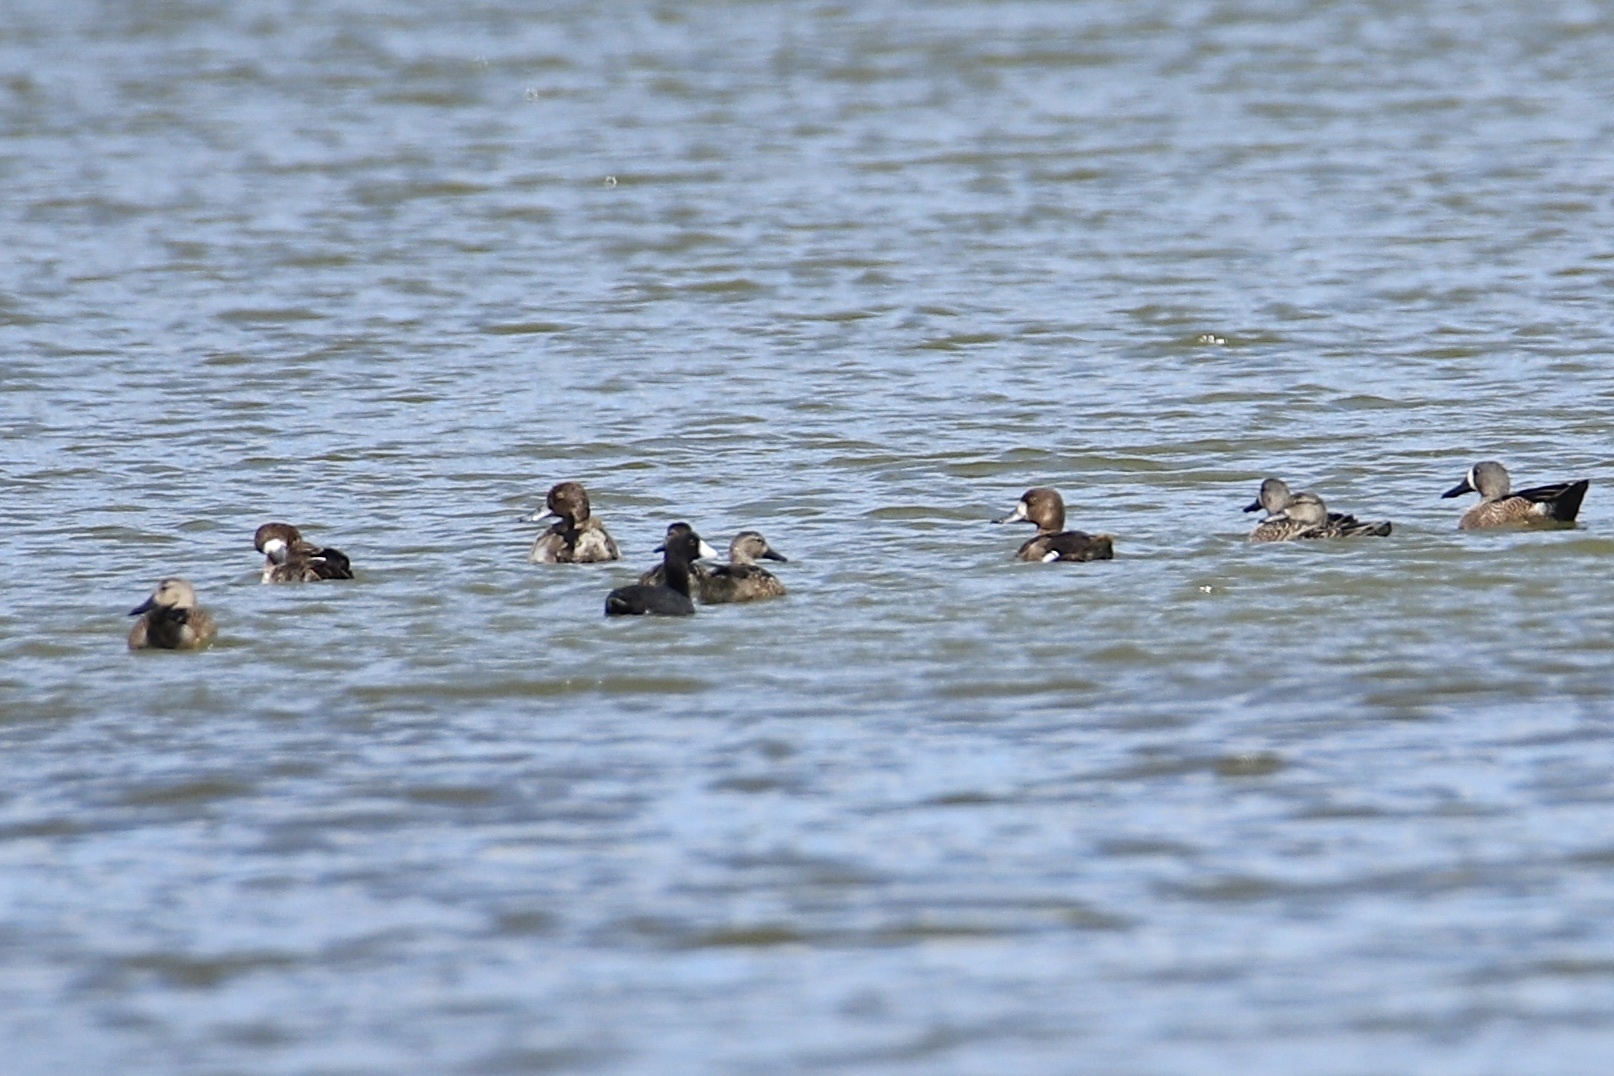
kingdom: Animalia
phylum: Chordata
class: Aves
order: Anseriformes
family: Anatidae
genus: Aythya
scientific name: Aythya affinis
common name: Lesser scaup
